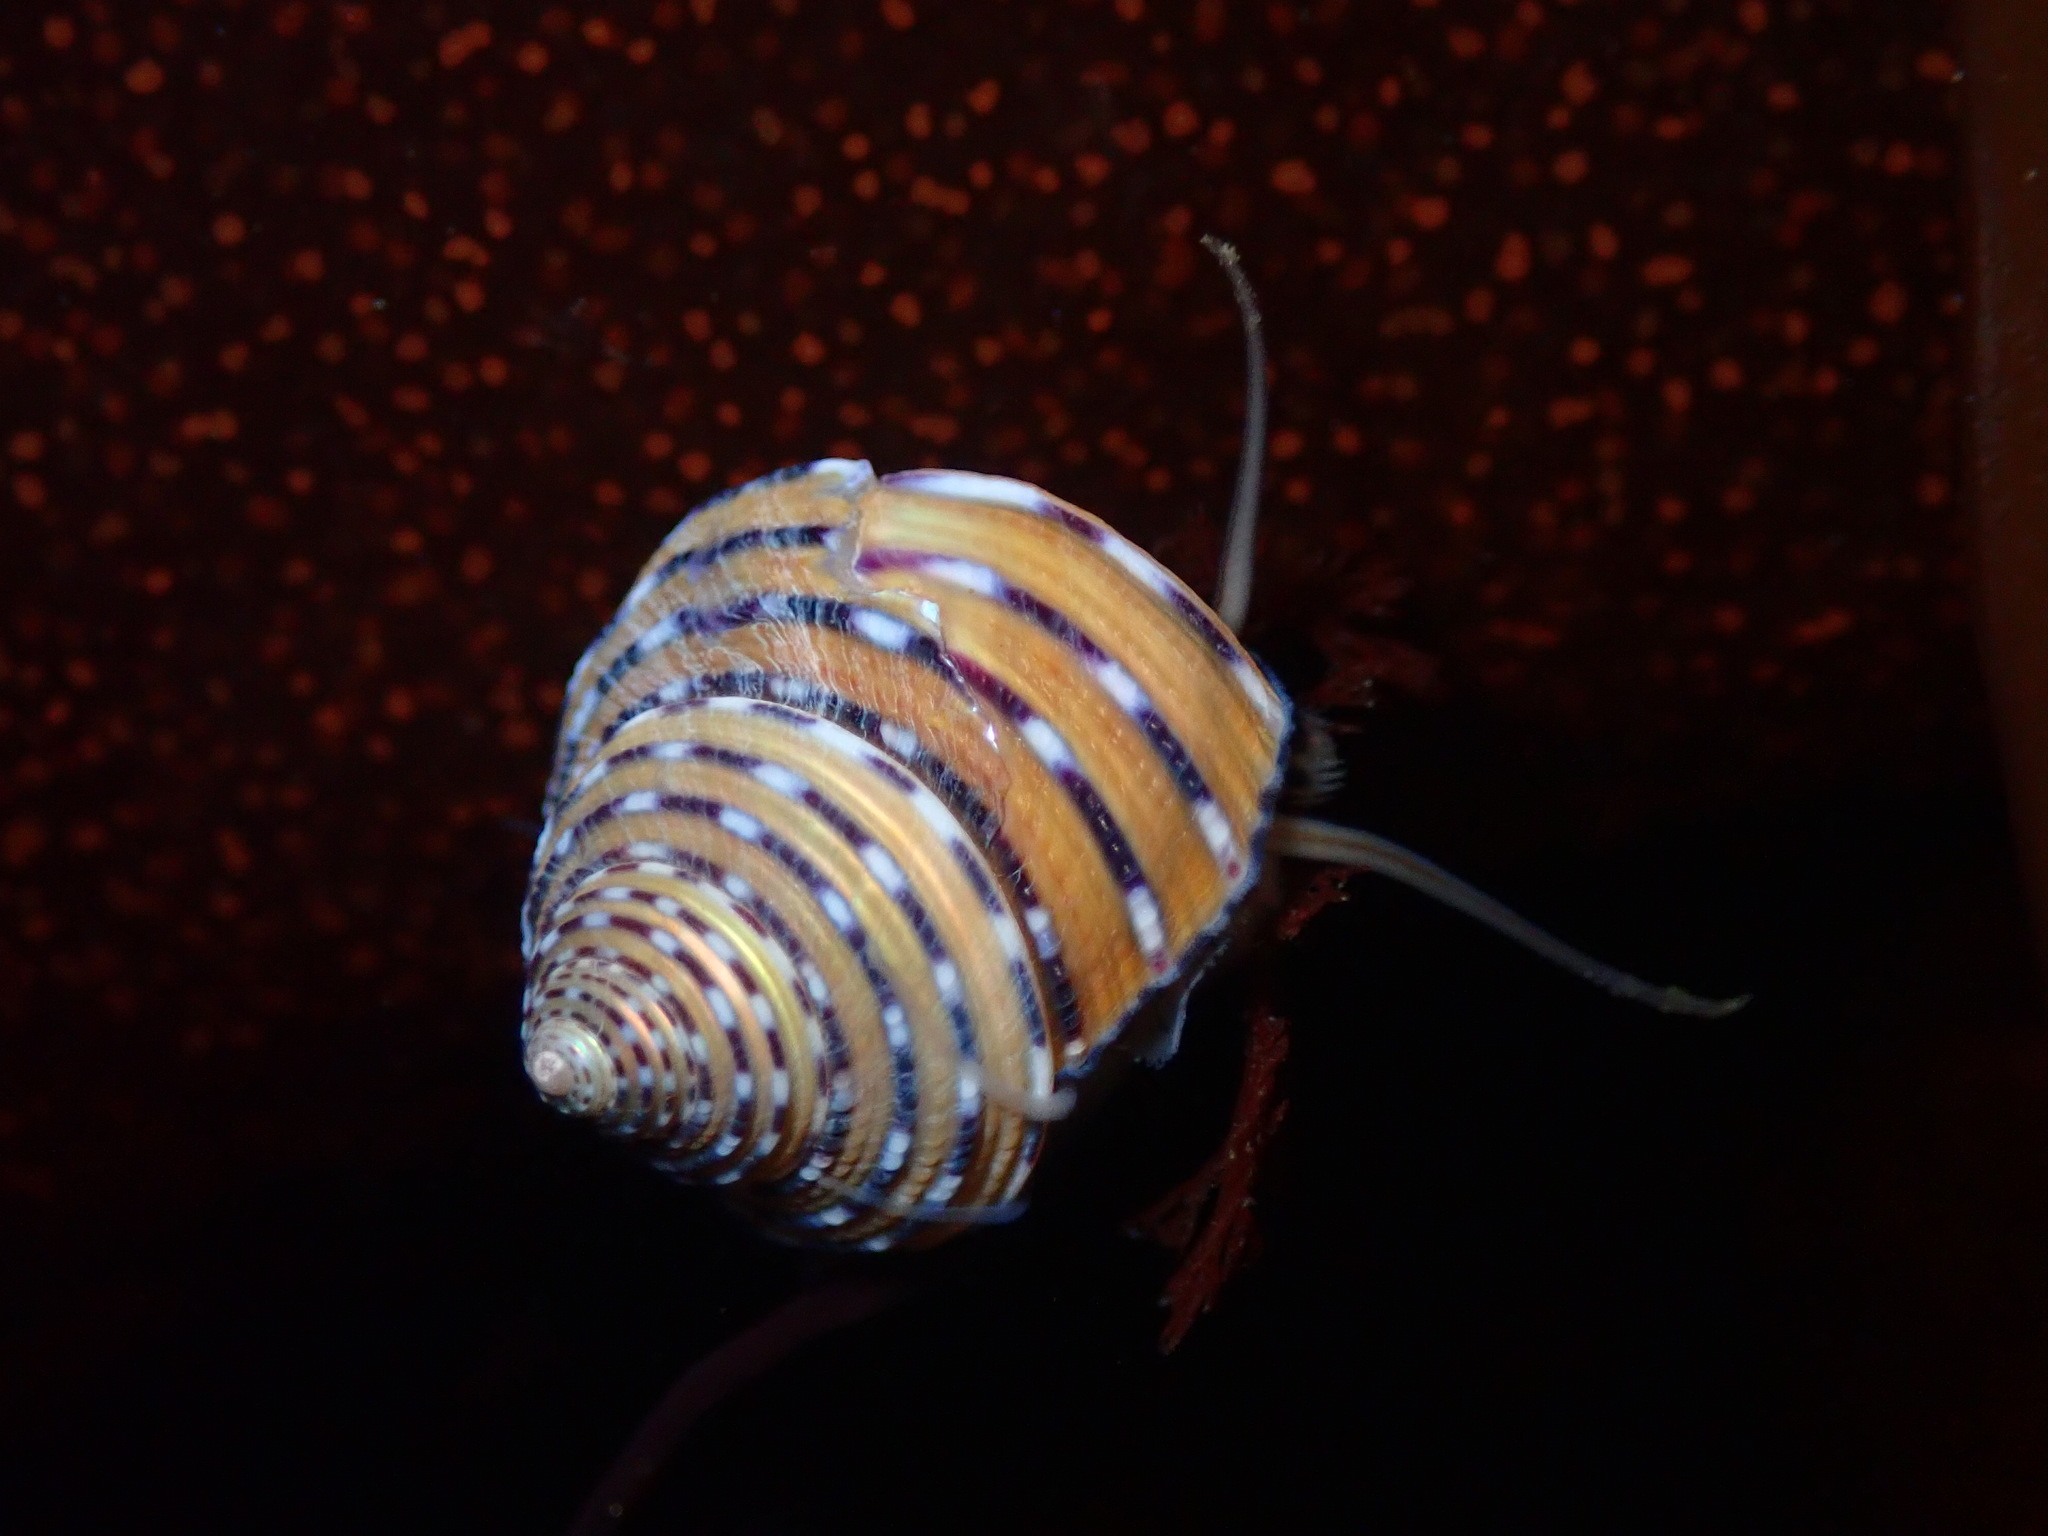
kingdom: Animalia
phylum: Mollusca
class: Gastropoda
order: Trochida
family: Calliostomatidae
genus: Calliostoma
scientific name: Calliostoma tricolor
